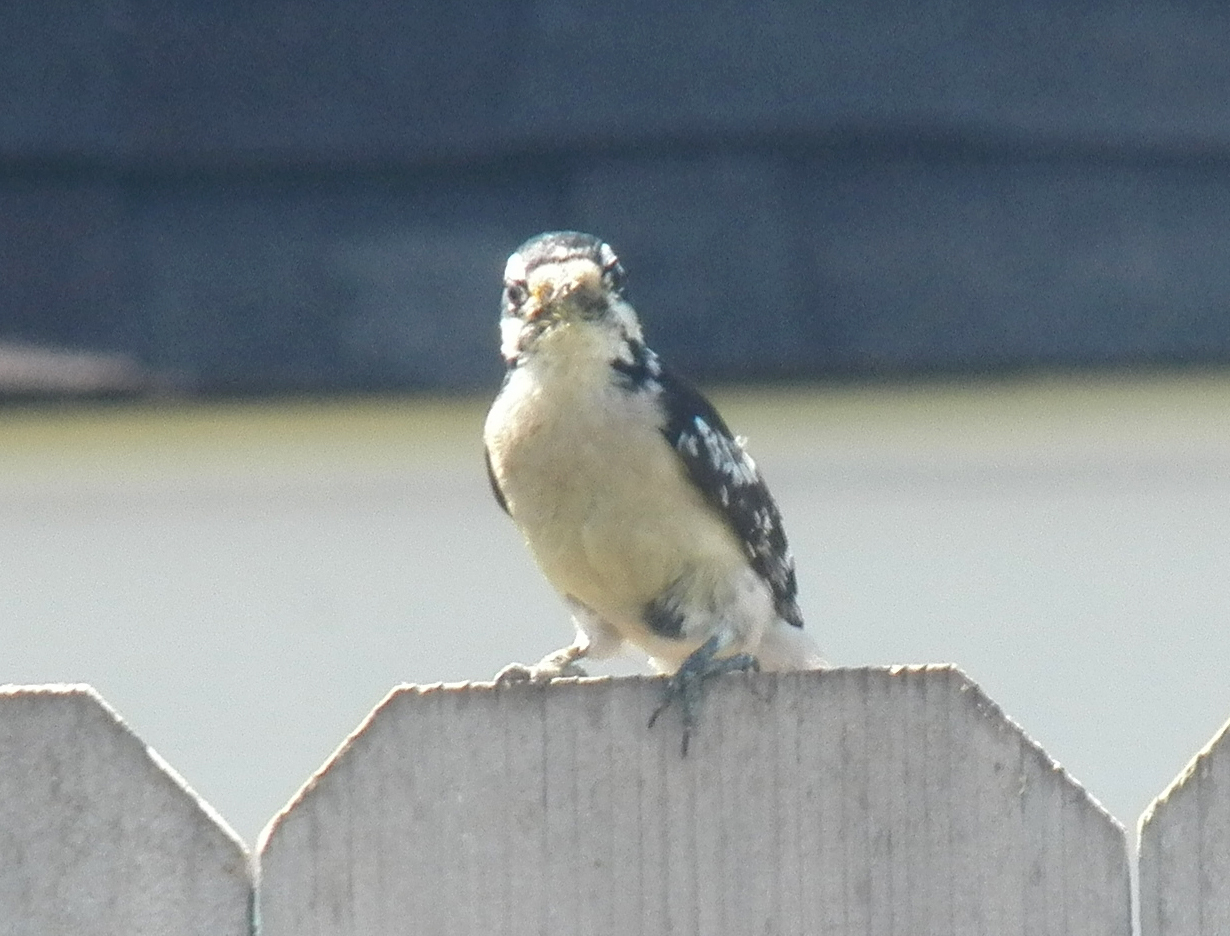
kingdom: Animalia
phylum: Chordata
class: Aves
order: Piciformes
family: Picidae
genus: Dryobates
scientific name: Dryobates pubescens
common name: Downy woodpecker
